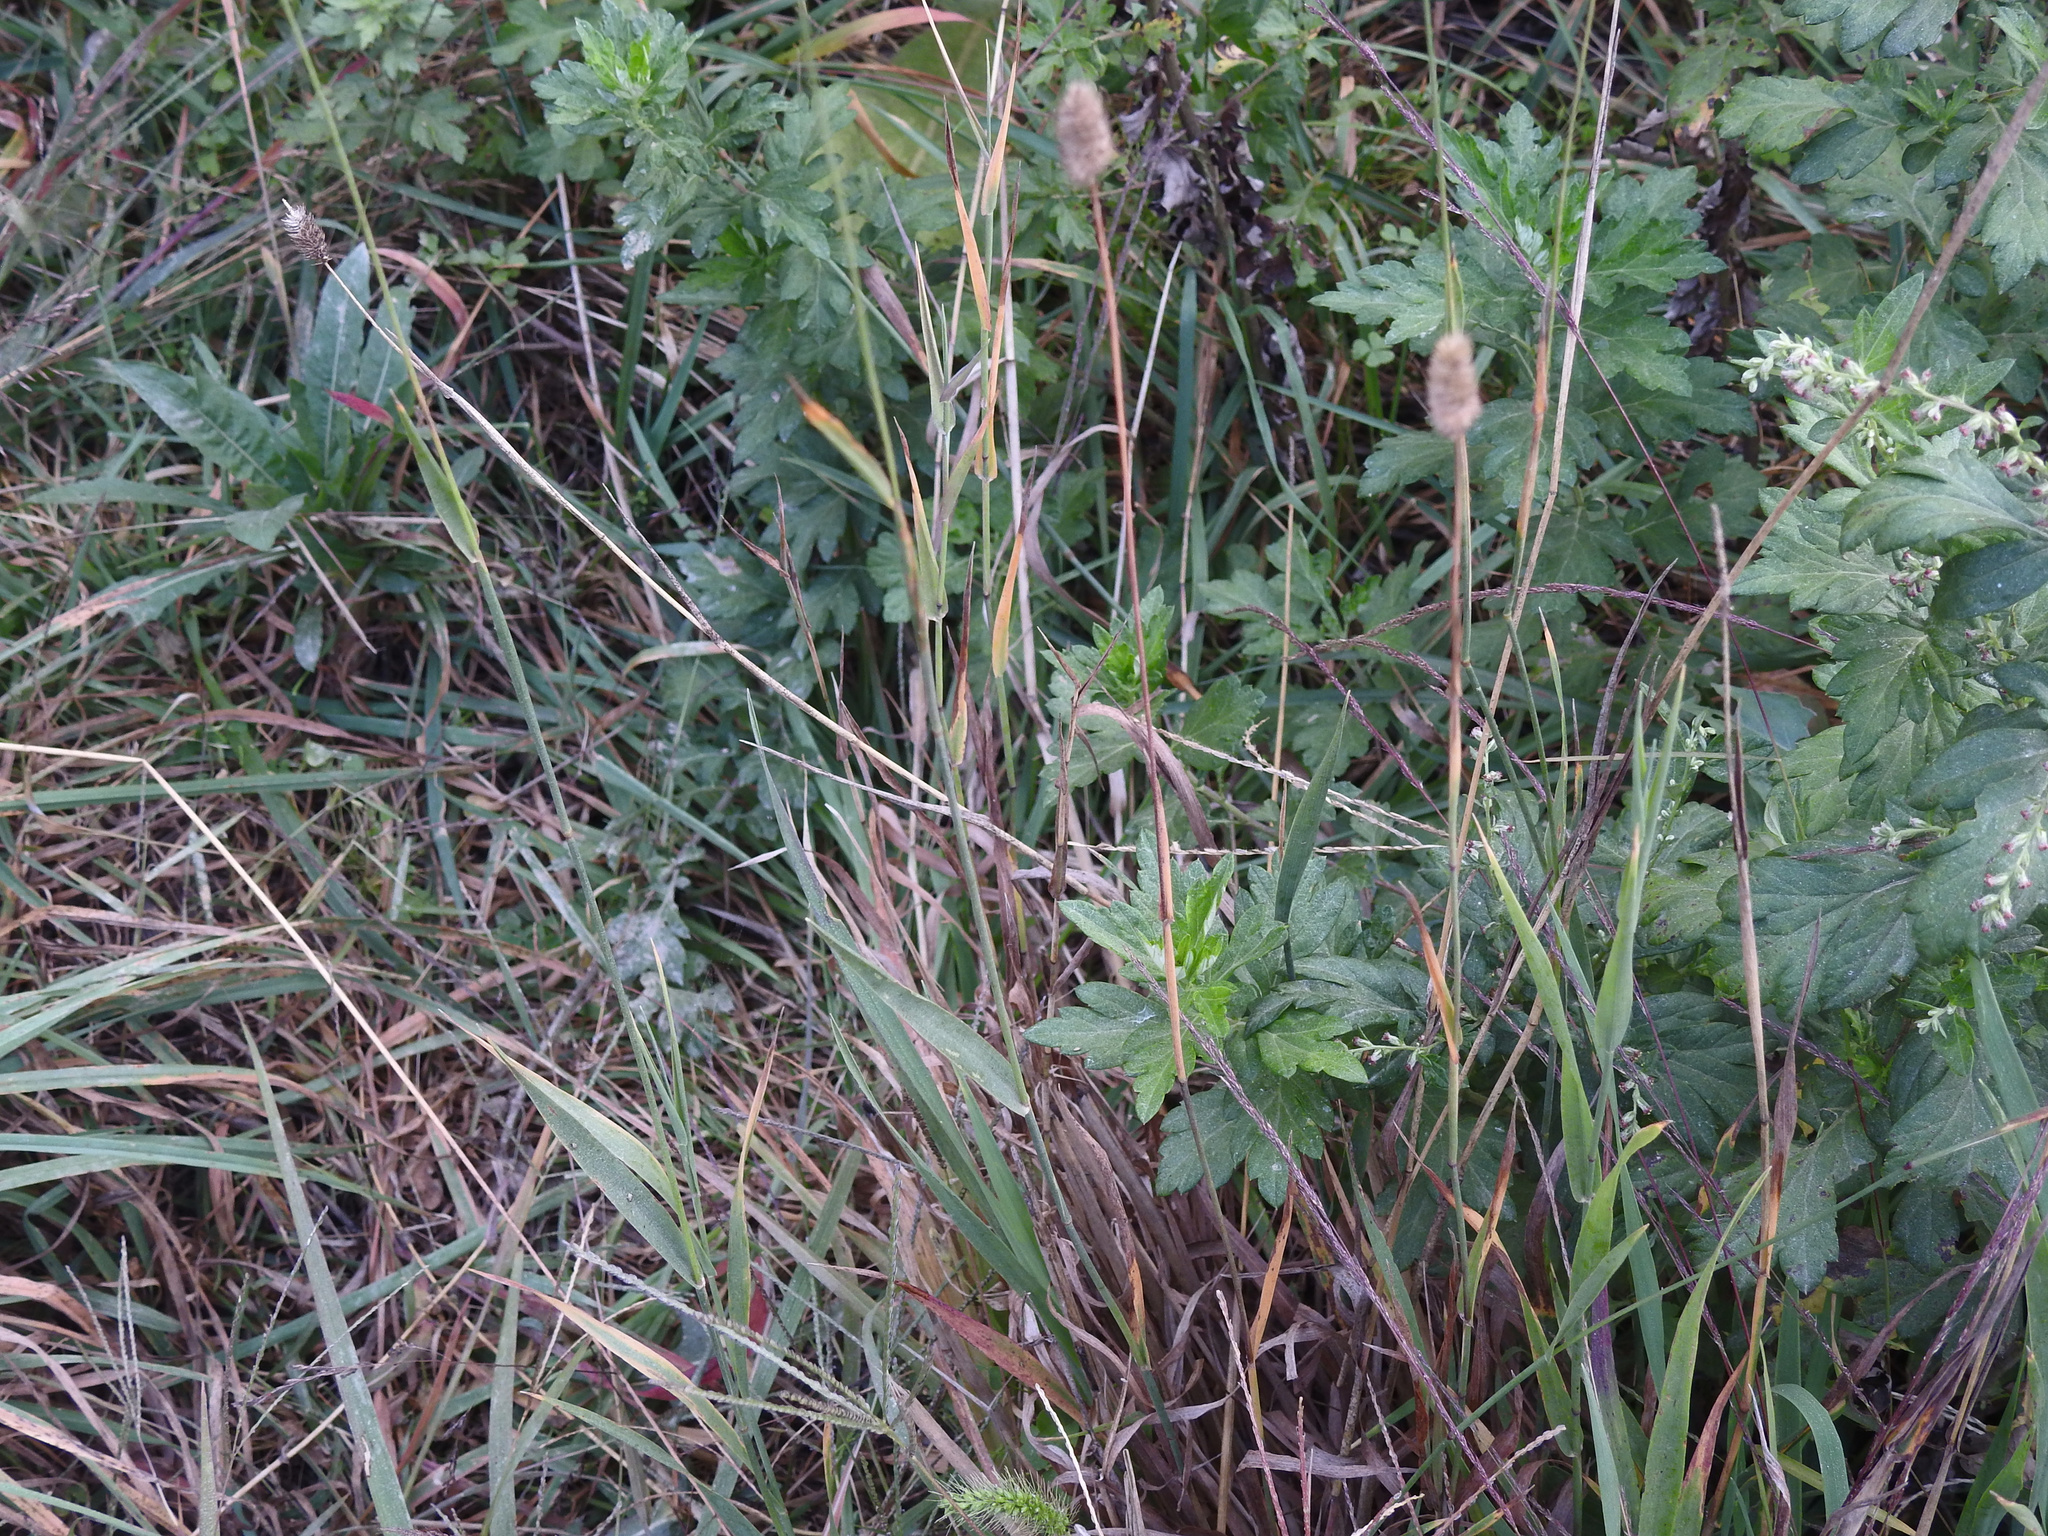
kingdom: Plantae
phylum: Tracheophyta
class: Liliopsida
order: Poales
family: Poaceae
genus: Phleum
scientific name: Phleum pratense
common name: Timothy grass
